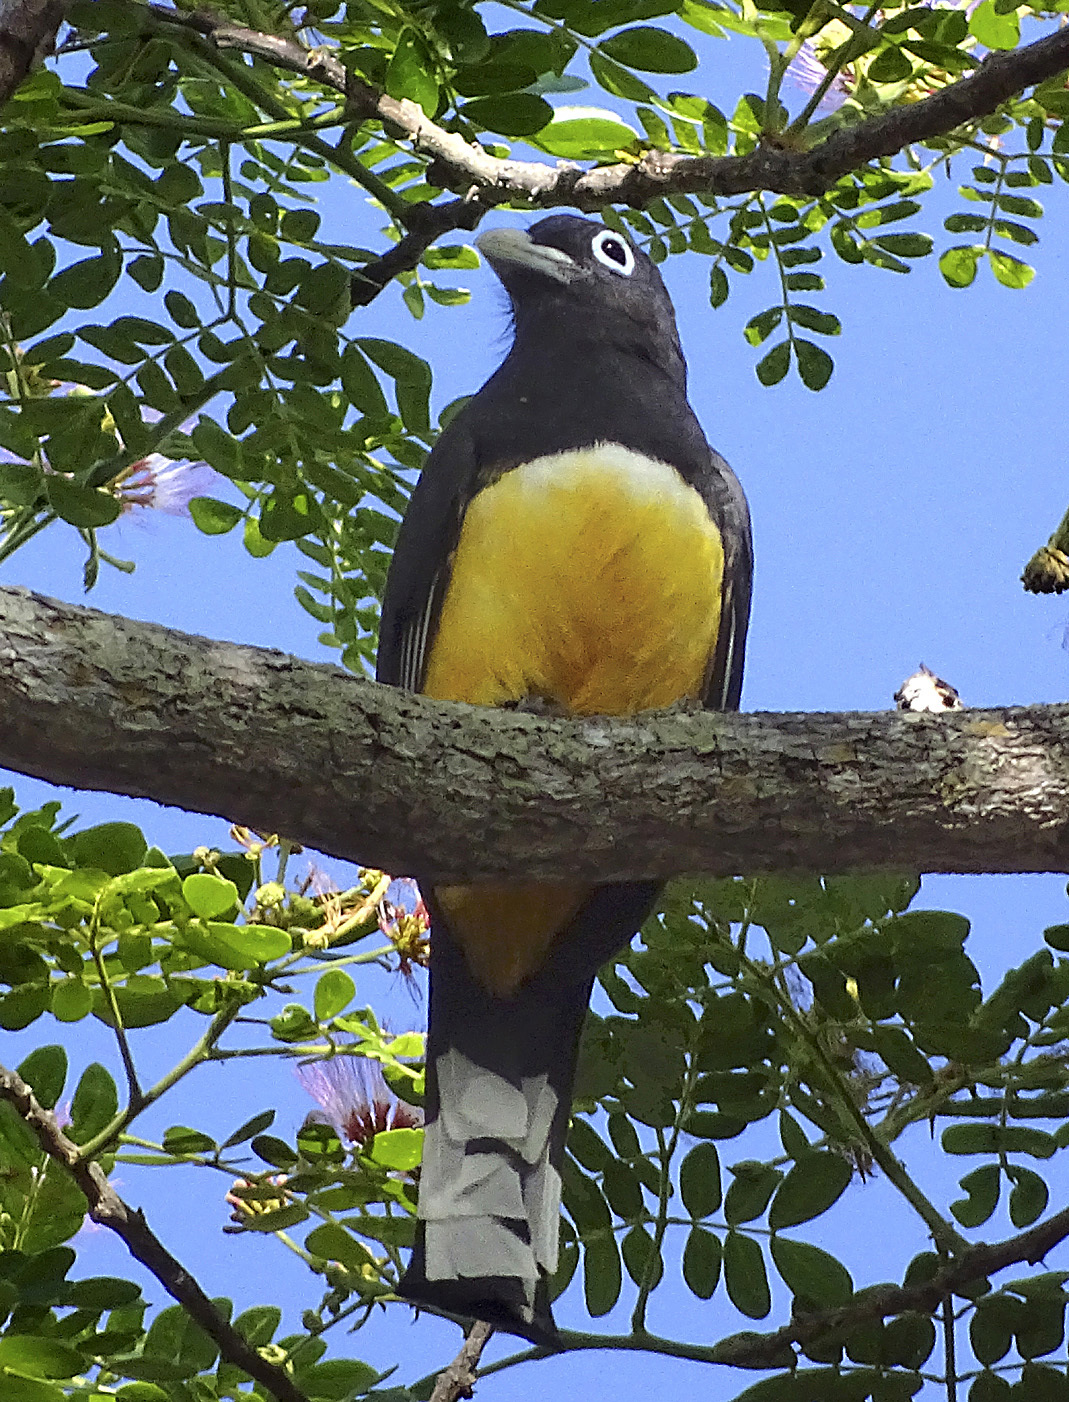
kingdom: Animalia
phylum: Chordata
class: Aves
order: Trogoniformes
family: Trogonidae
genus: Trogon
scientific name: Trogon melanocephalus
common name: Black-headed trogon
